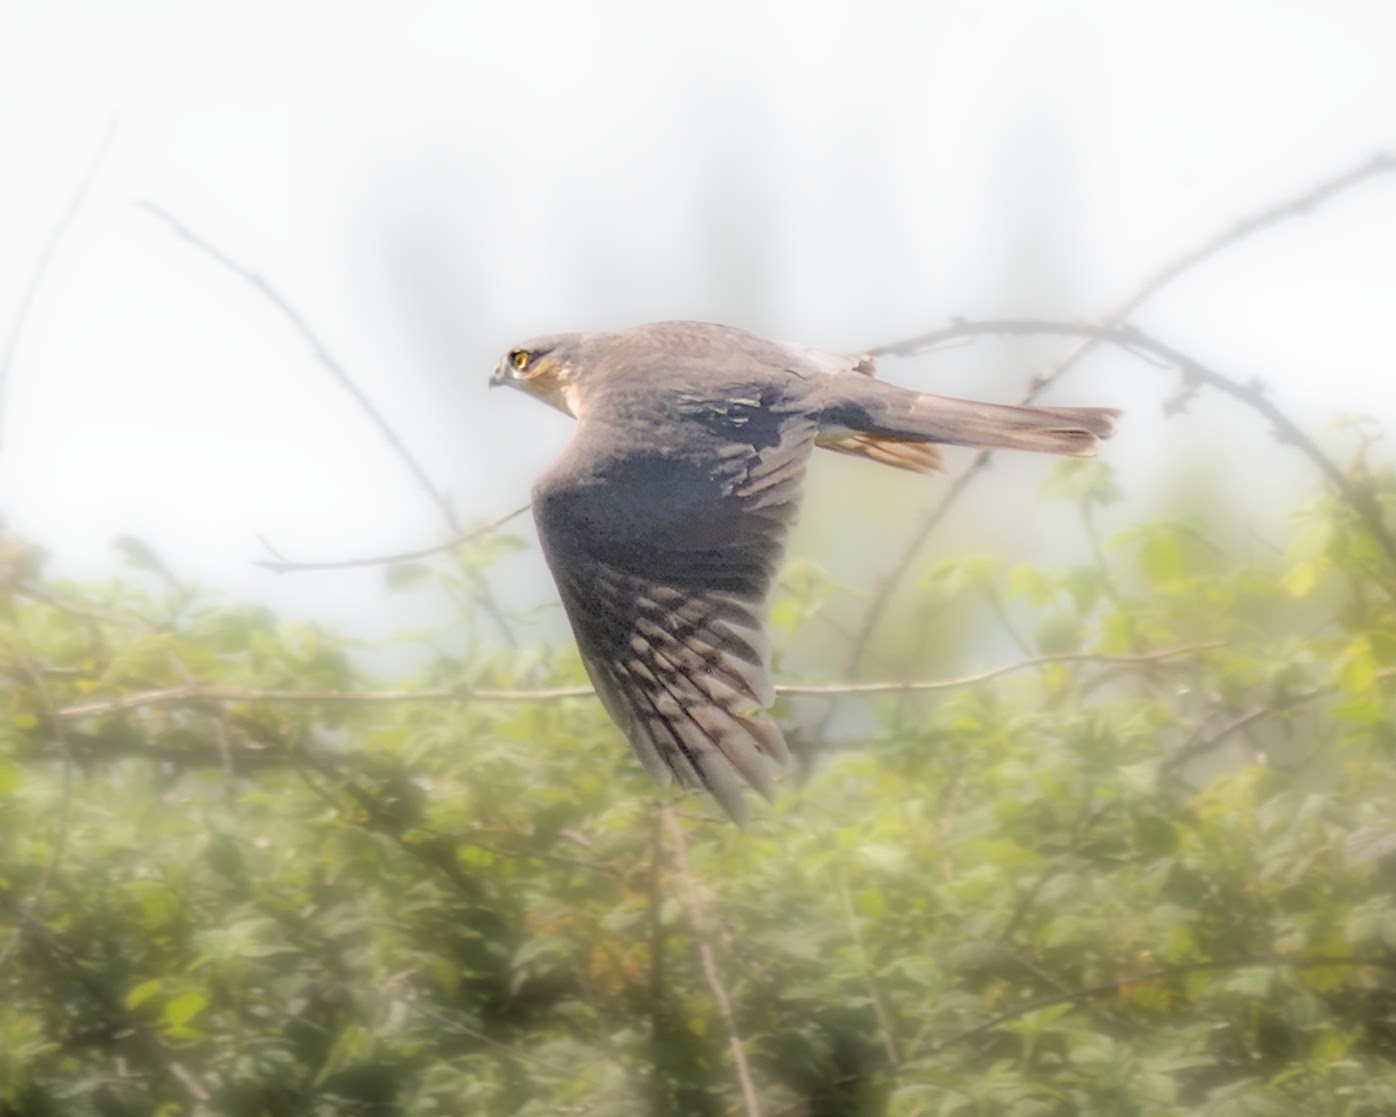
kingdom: Animalia
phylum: Chordata
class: Aves
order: Accipitriformes
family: Accipitridae
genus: Accipiter
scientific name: Accipiter nisus
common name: Eurasian sparrowhawk
